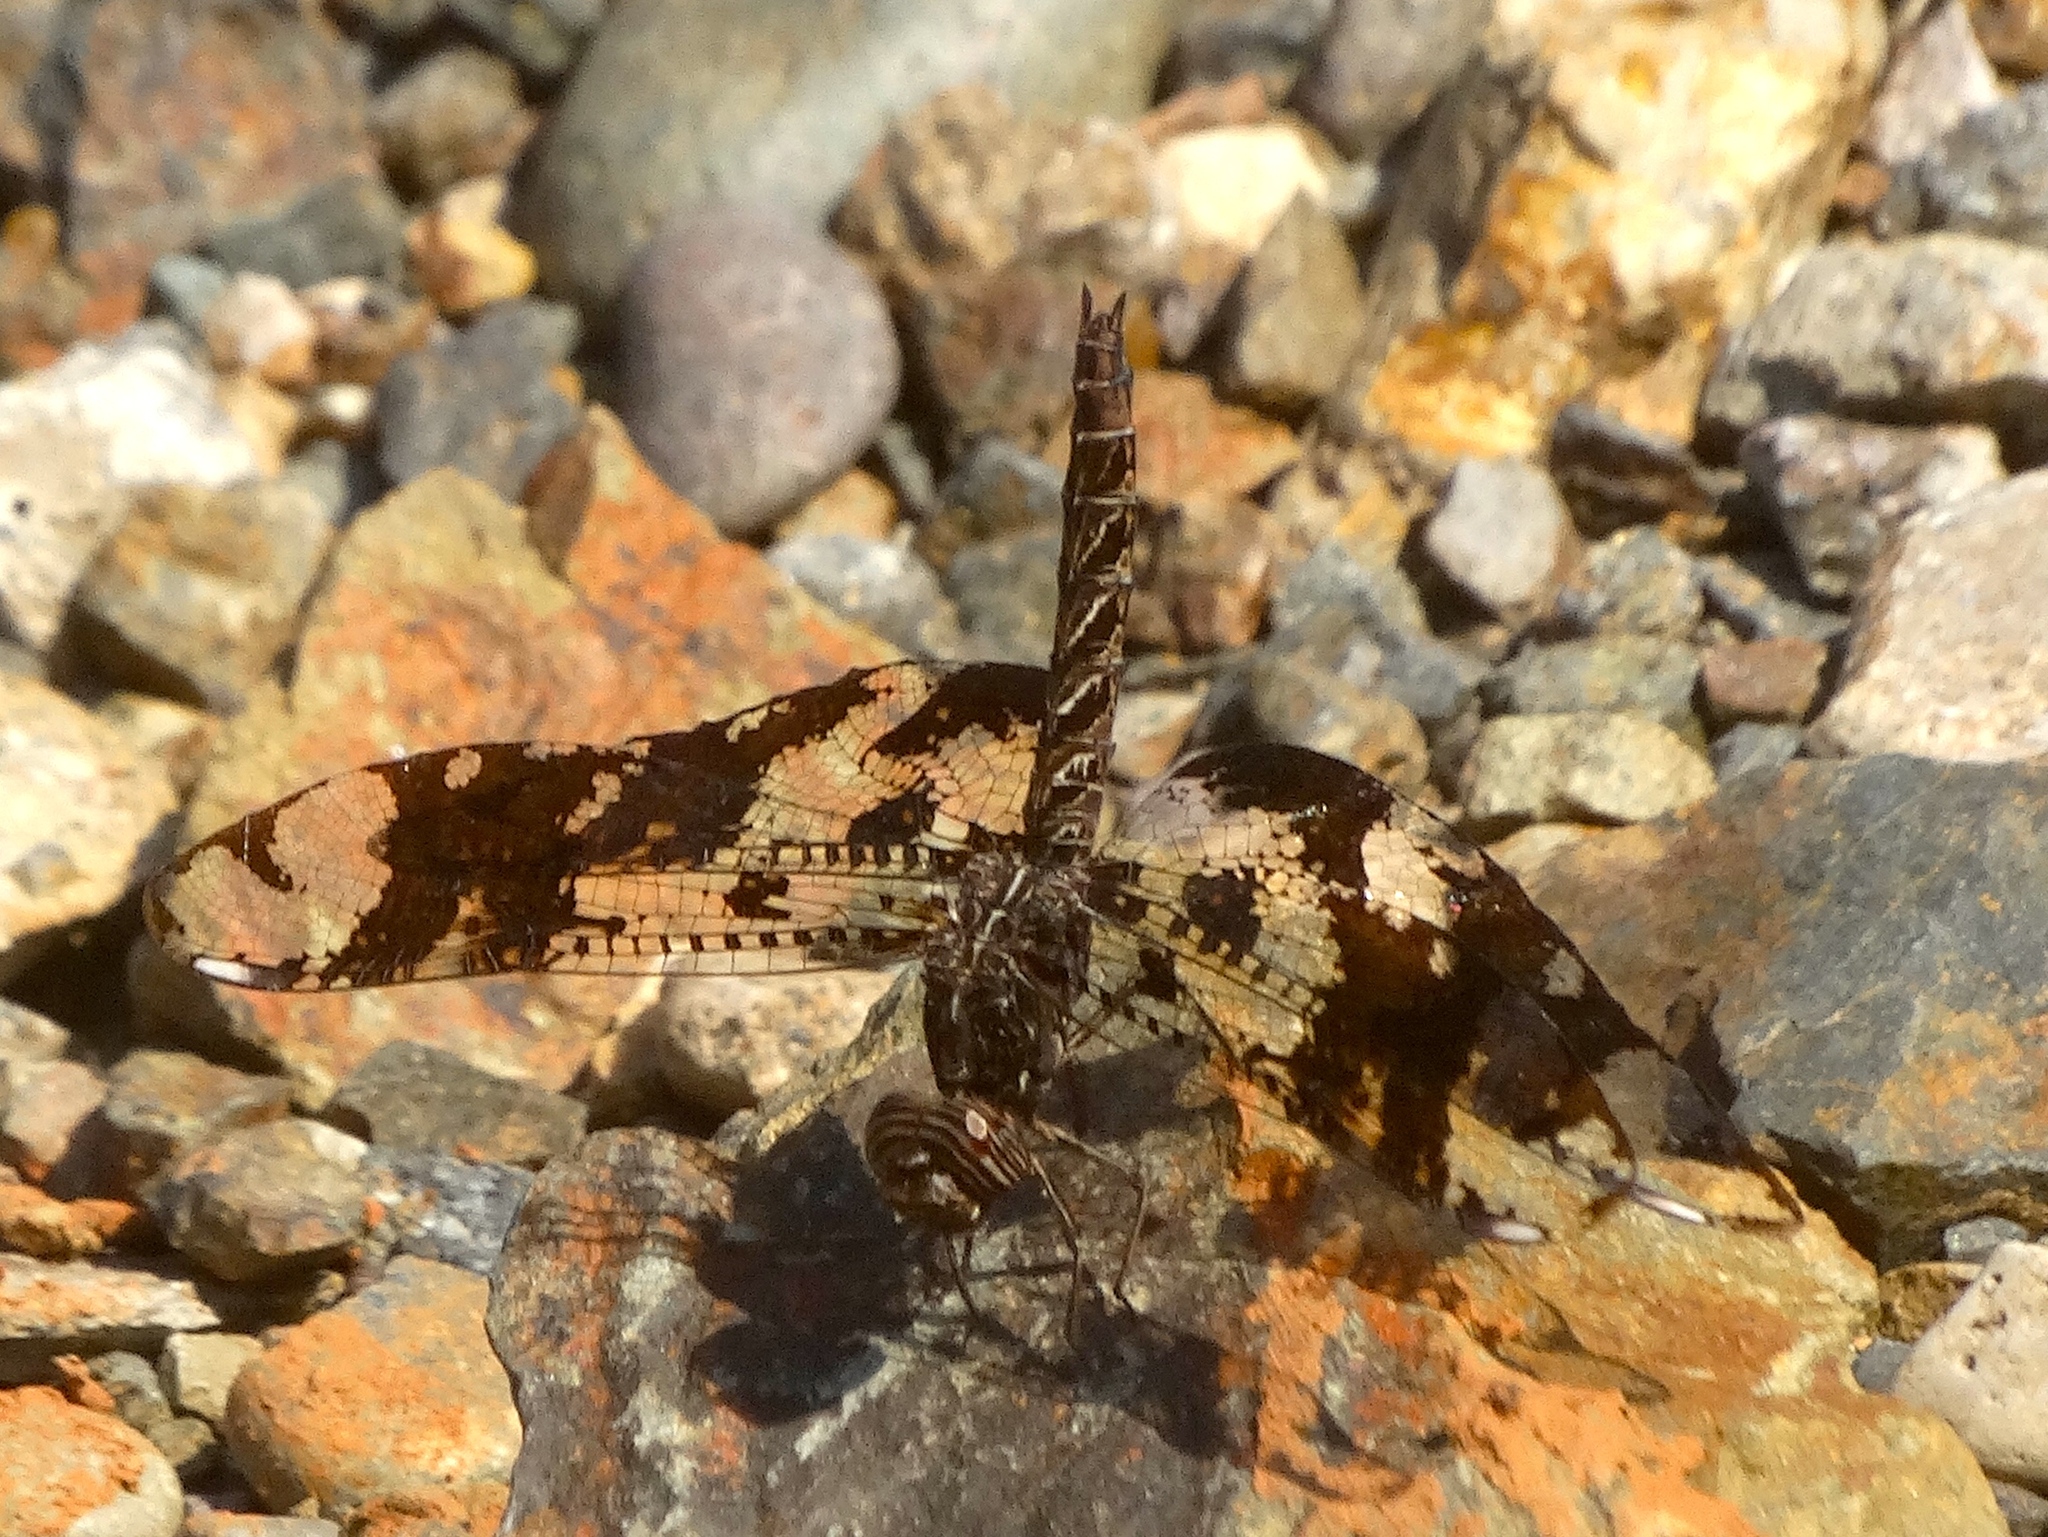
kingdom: Animalia
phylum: Arthropoda
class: Insecta
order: Odonata
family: Libellulidae
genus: Pseudoleon
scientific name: Pseudoleon superbus
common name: Filigree skimmer
